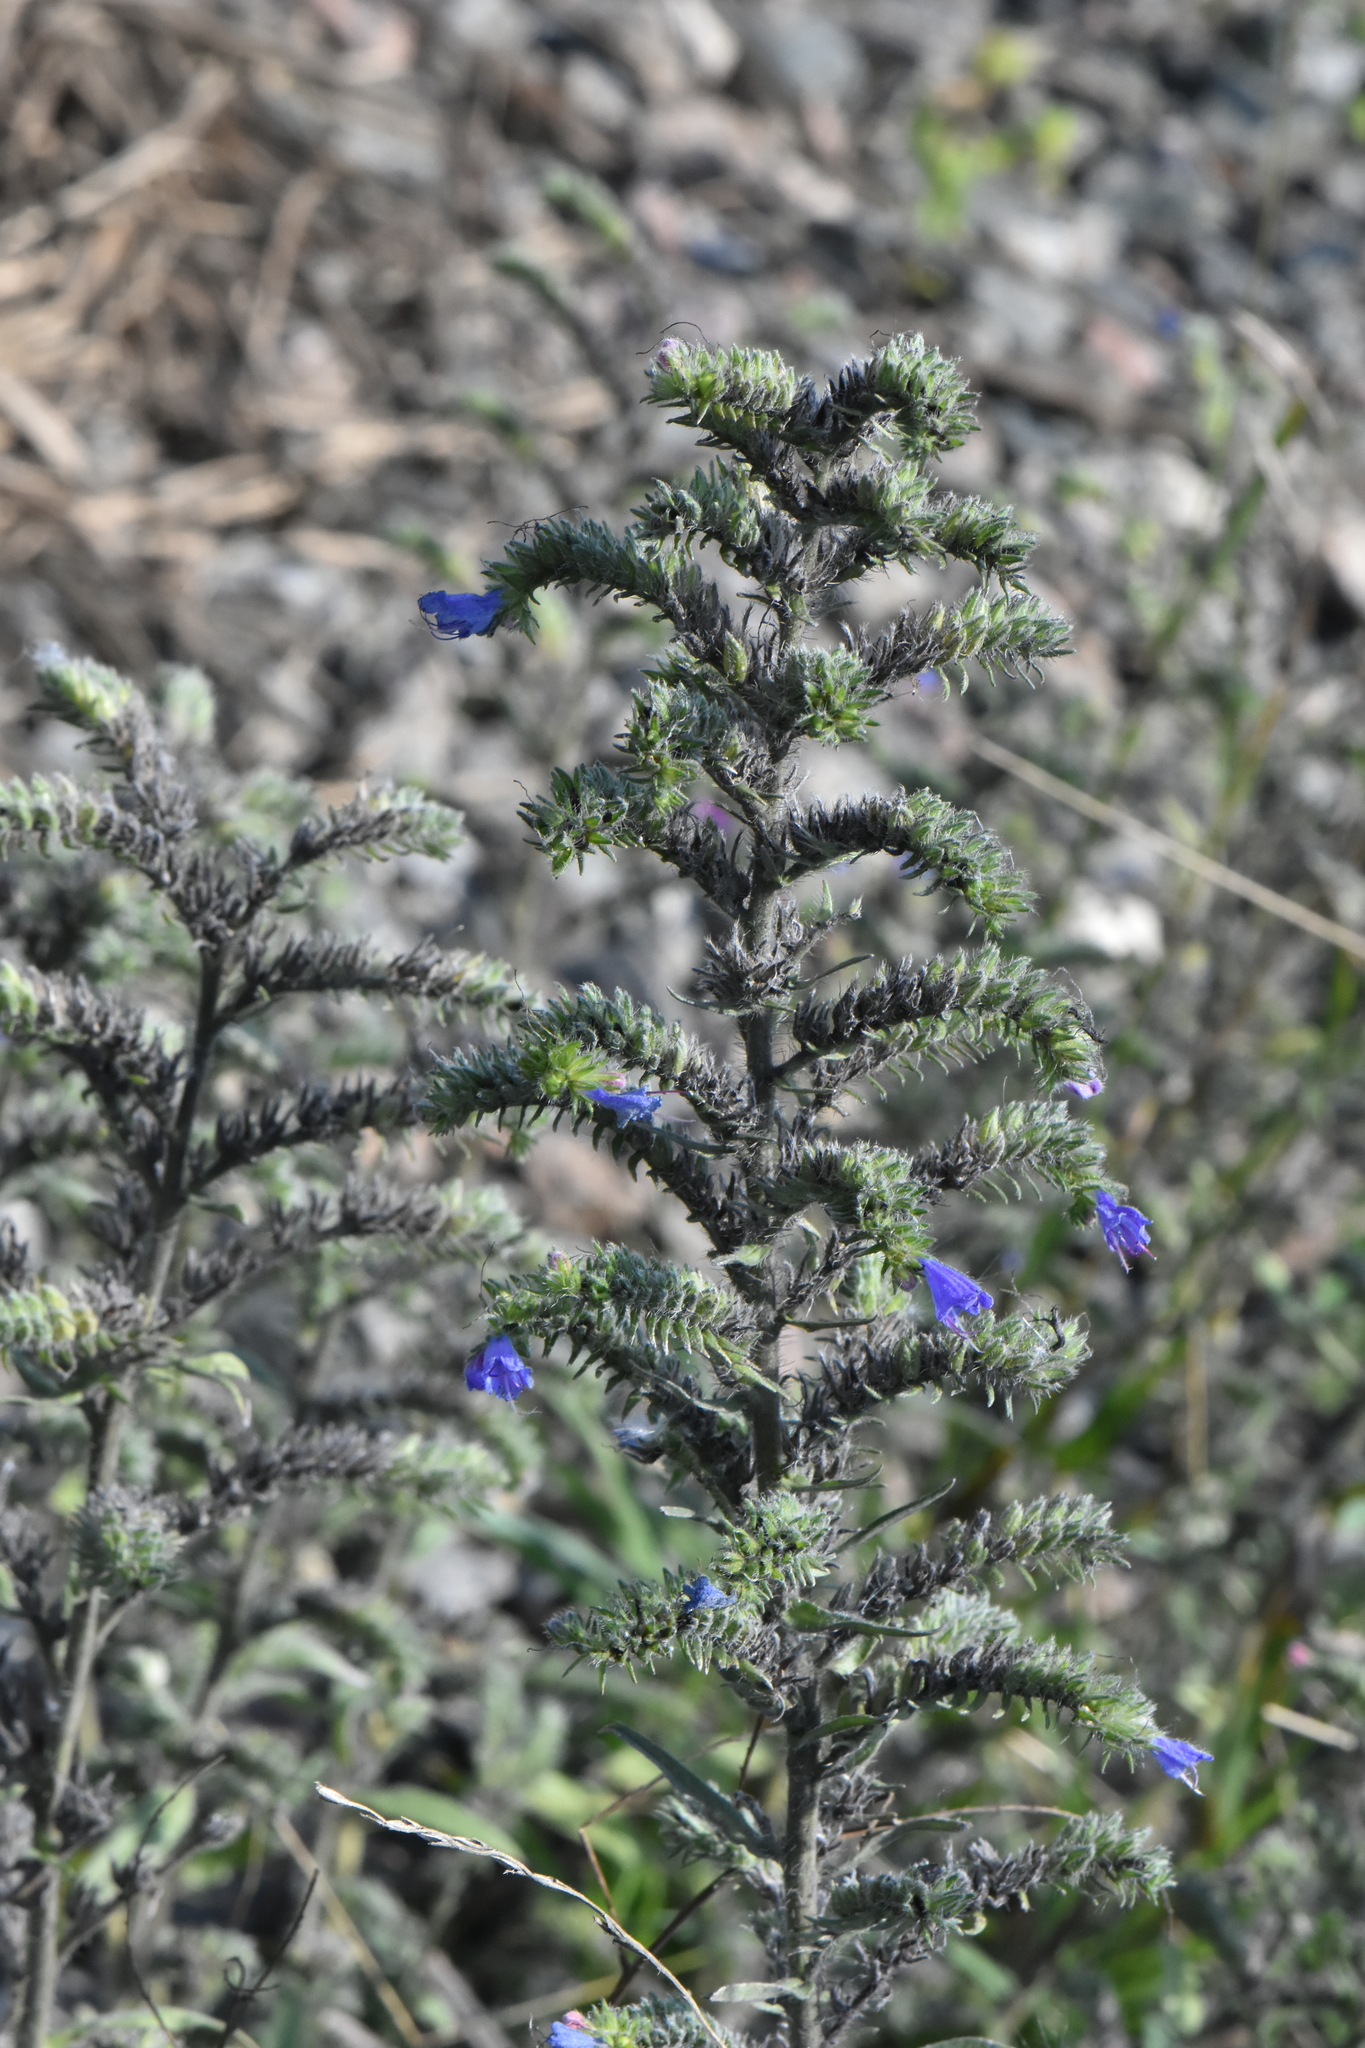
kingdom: Plantae
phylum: Tracheophyta
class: Magnoliopsida
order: Boraginales
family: Boraginaceae
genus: Echium
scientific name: Echium vulgare
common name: Common viper's bugloss
